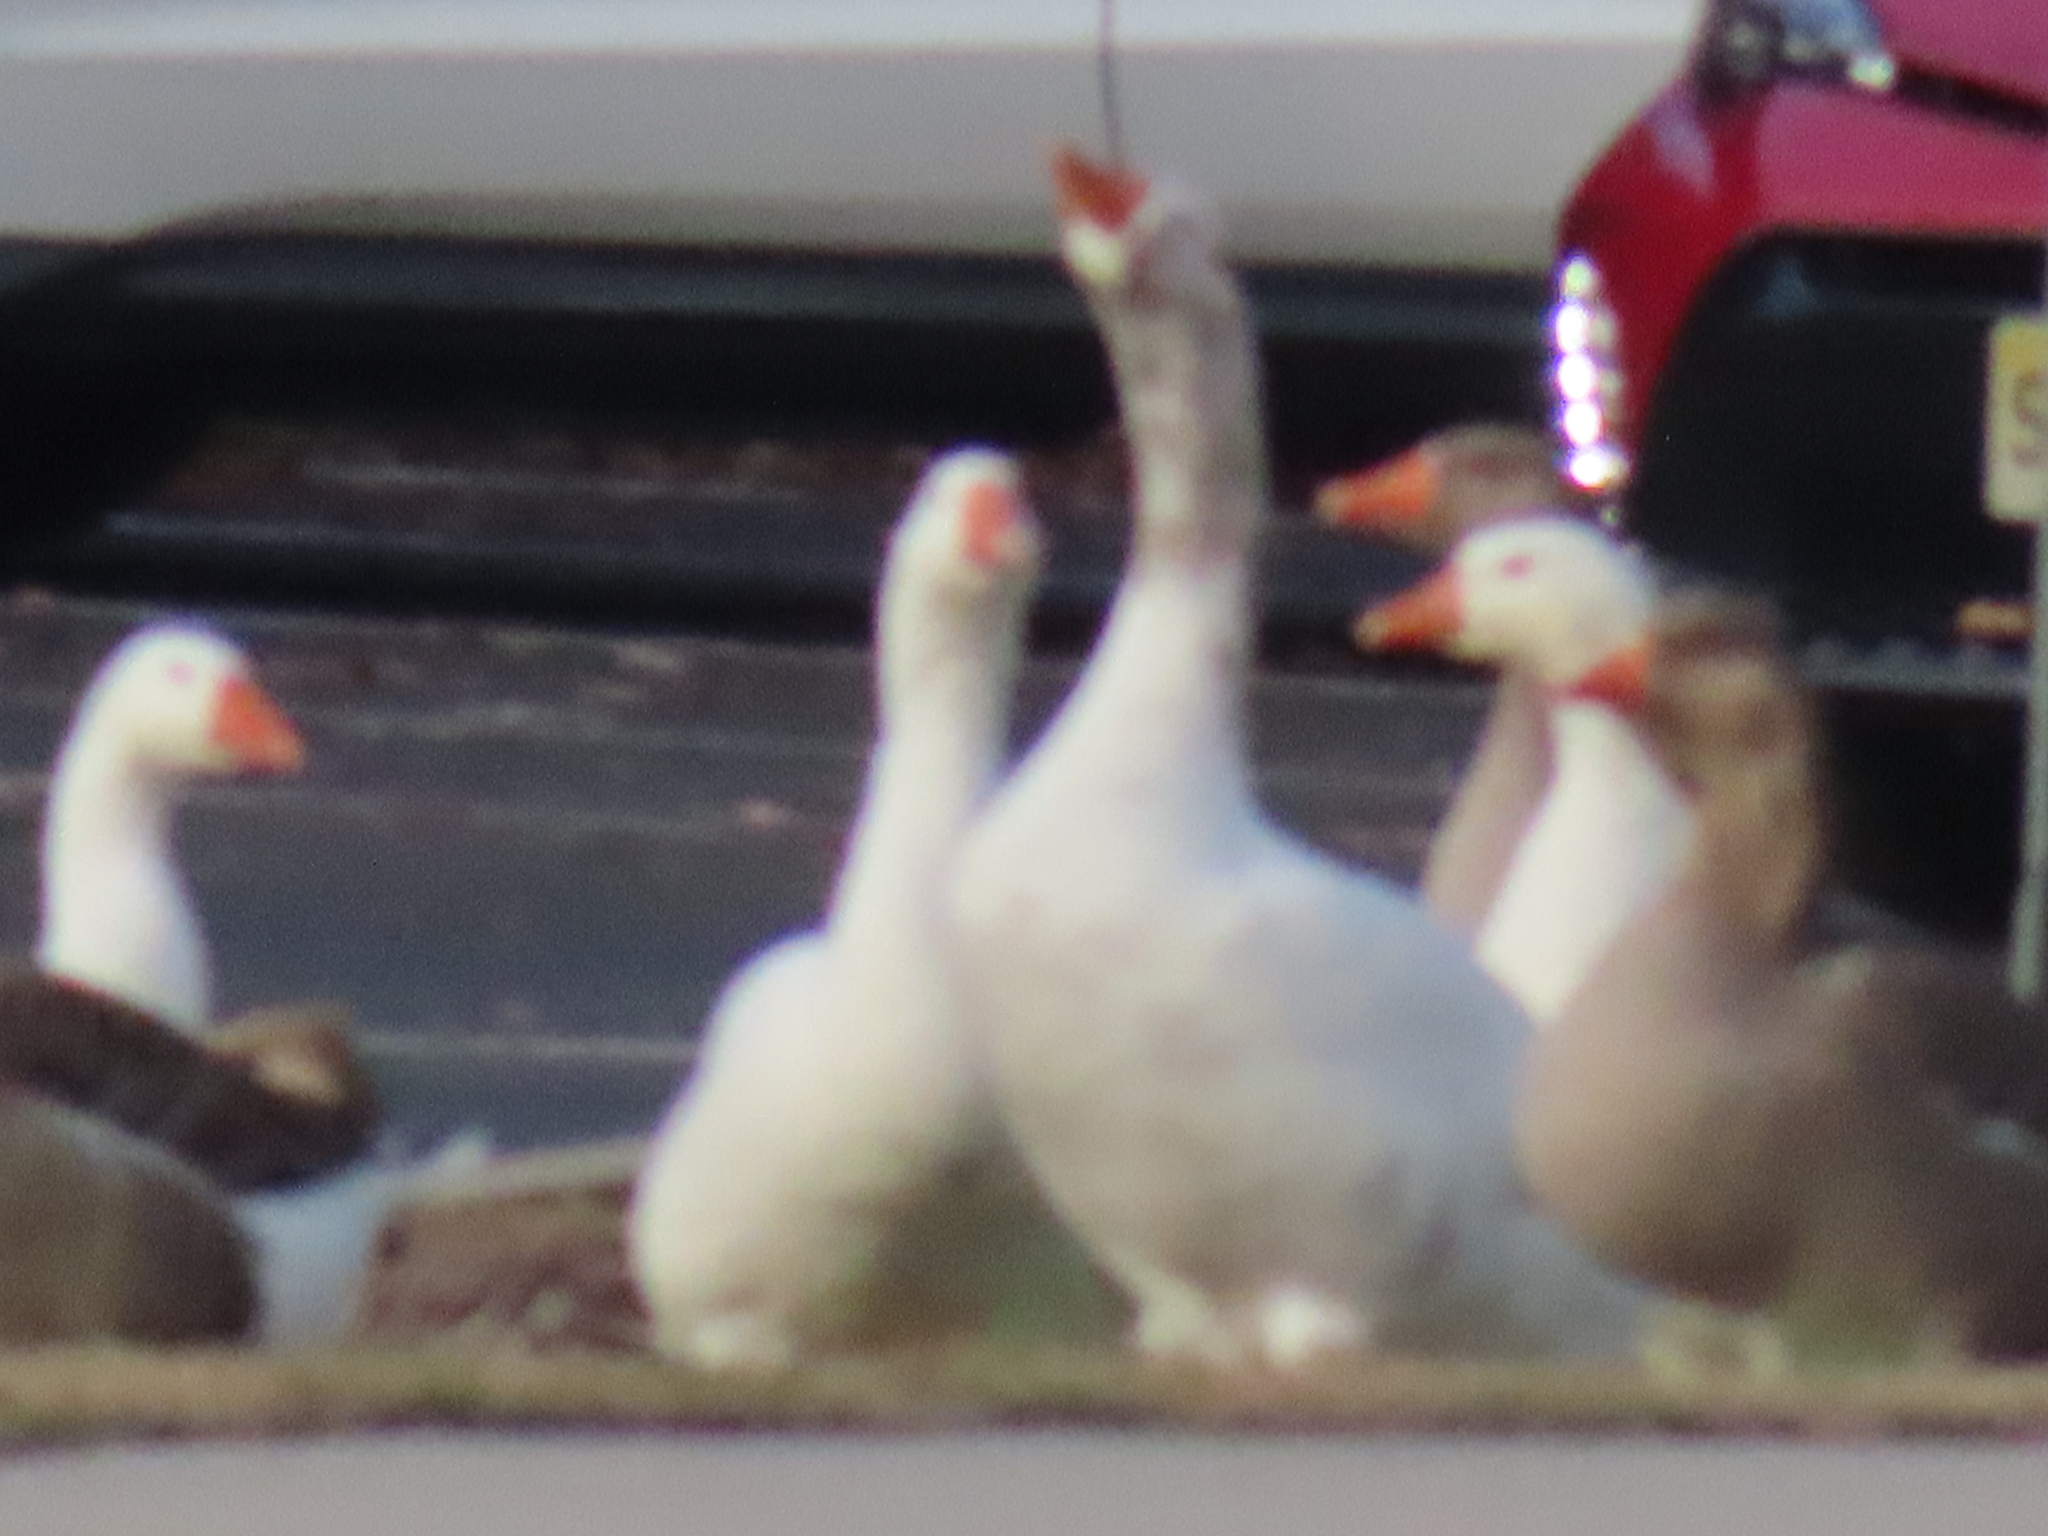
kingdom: Animalia
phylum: Chordata
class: Aves
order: Anseriformes
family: Anatidae
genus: Anser
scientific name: Anser anser
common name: Greylag goose
